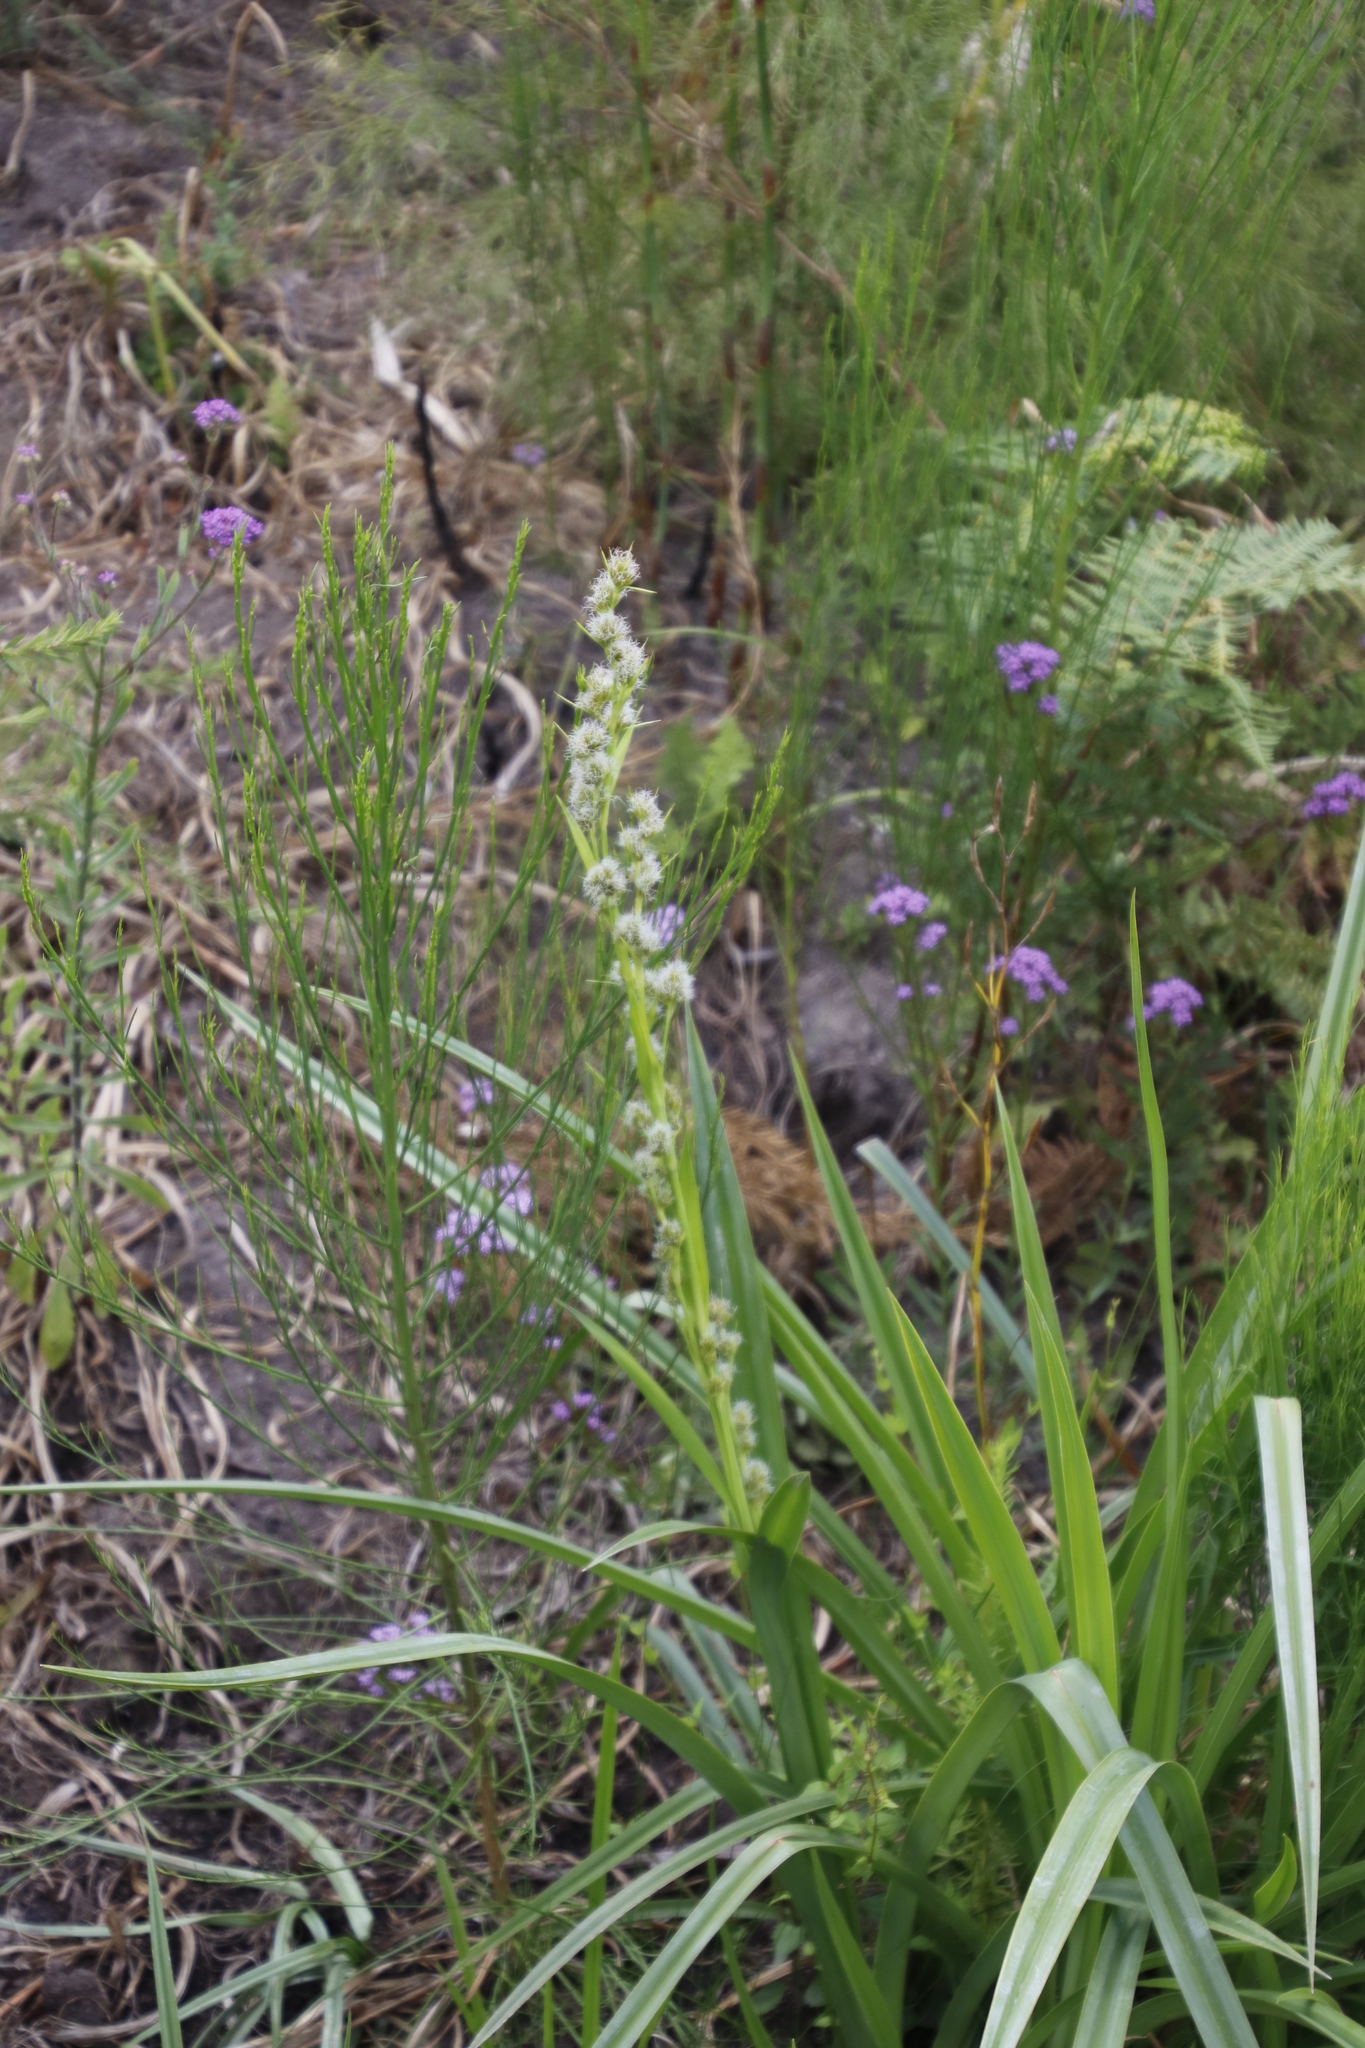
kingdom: Plantae
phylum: Tracheophyta
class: Liliopsida
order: Poales
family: Cyperaceae
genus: Carpha
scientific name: Carpha glomerata
